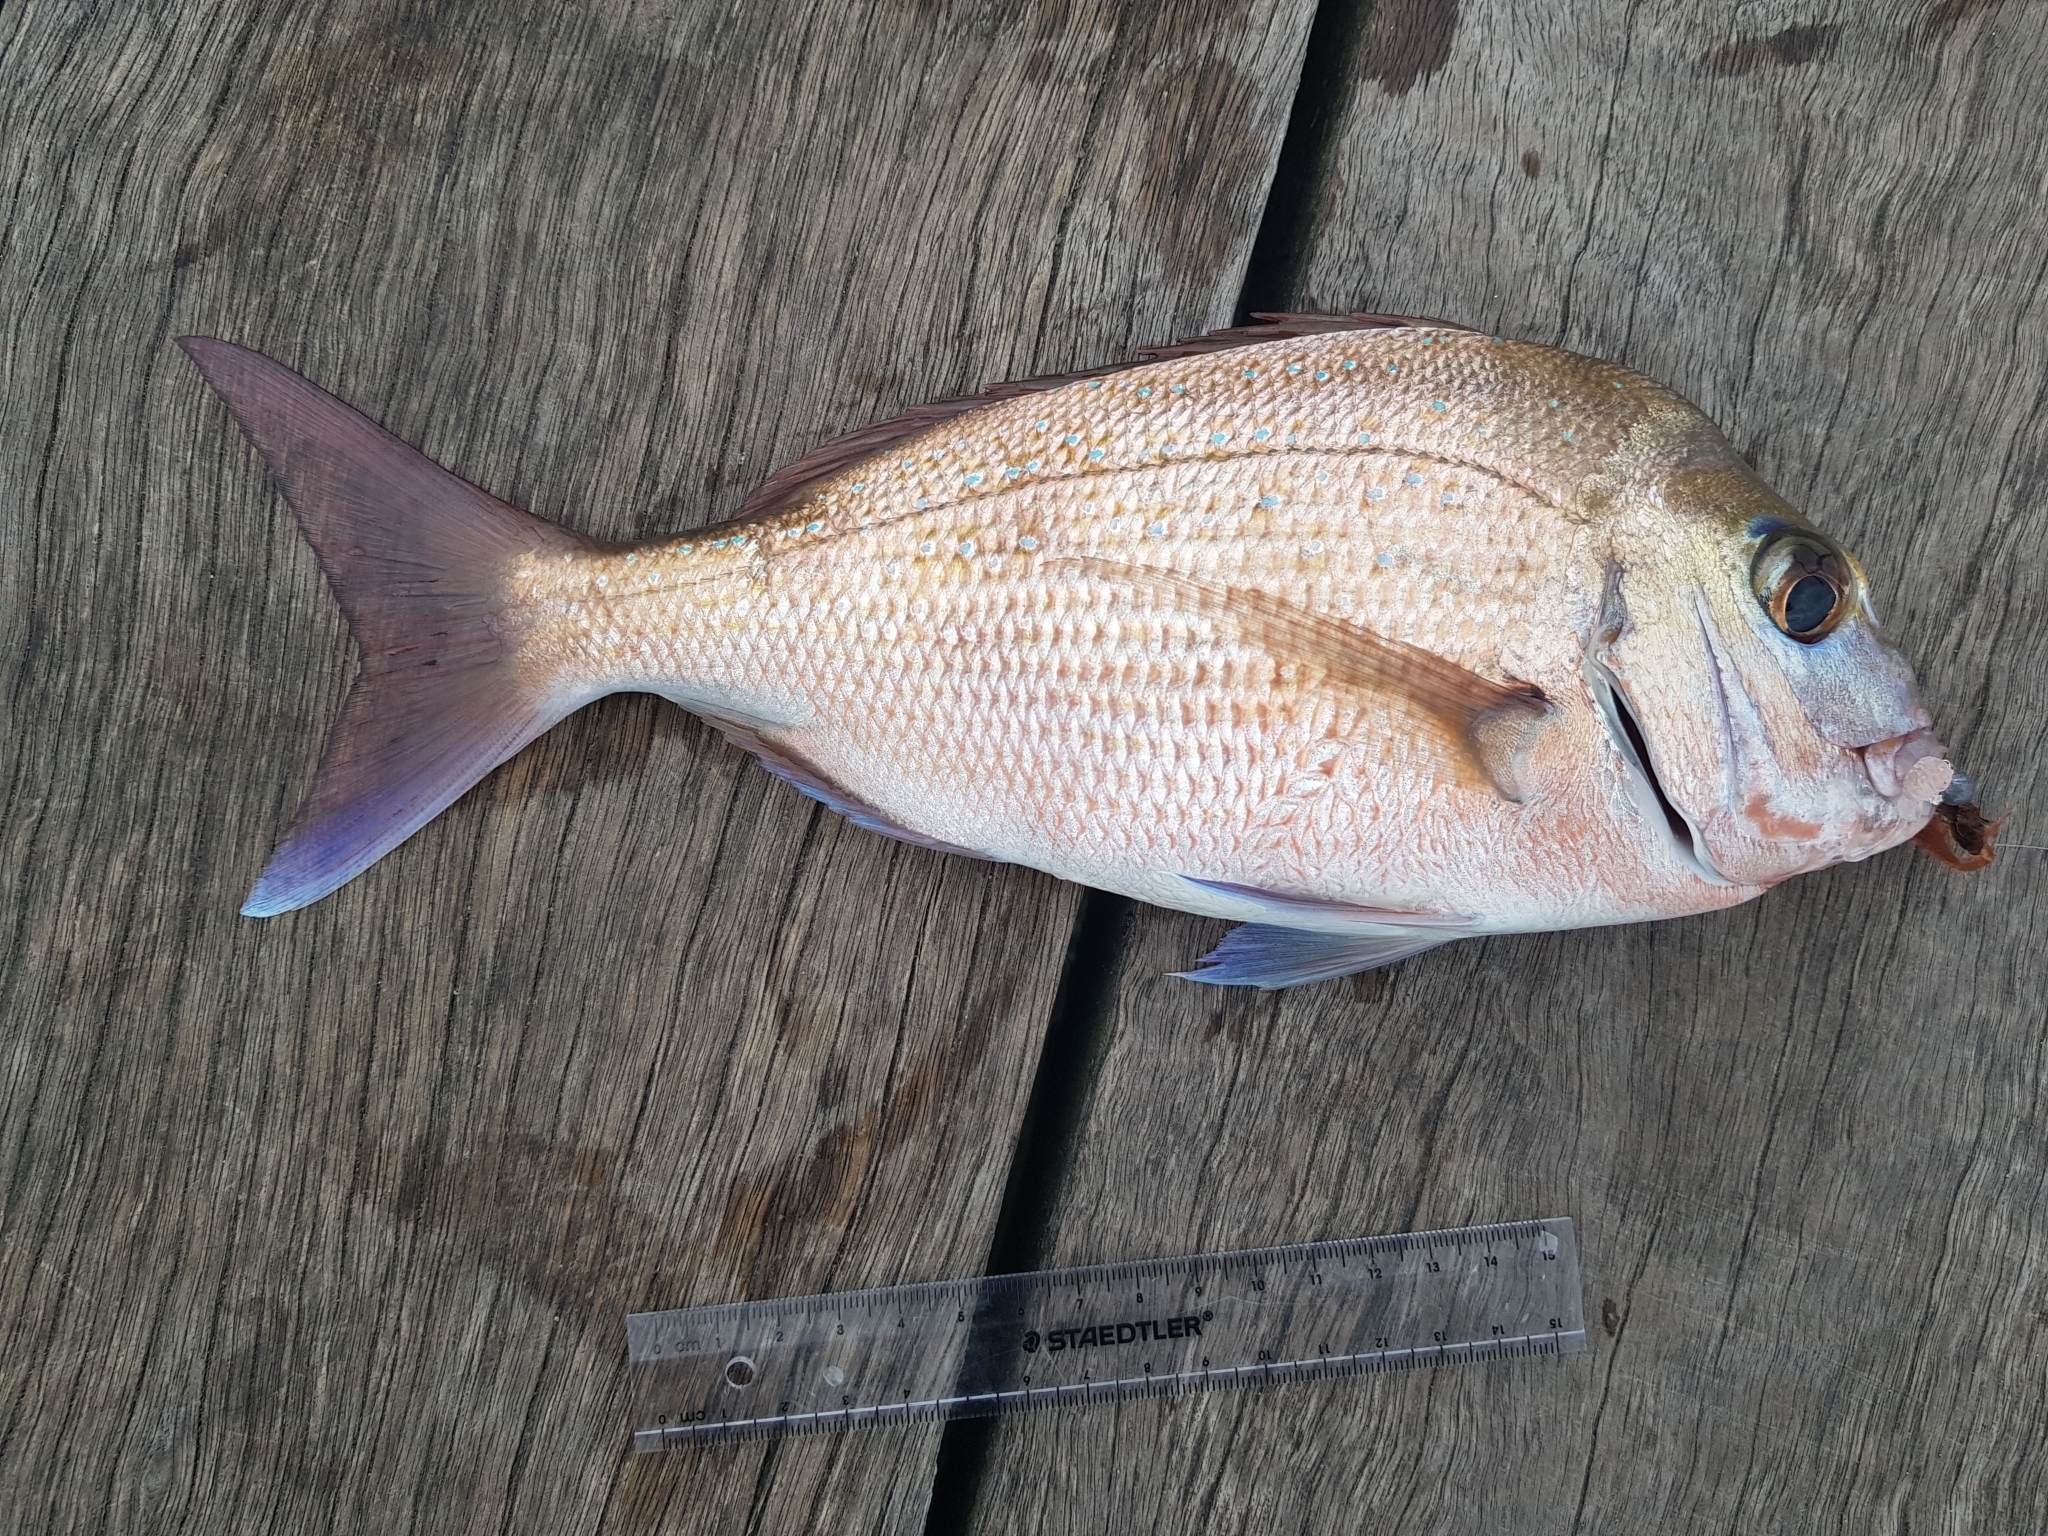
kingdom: Animalia
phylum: Chordata
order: Perciformes
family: Sparidae
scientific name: Sparidae
